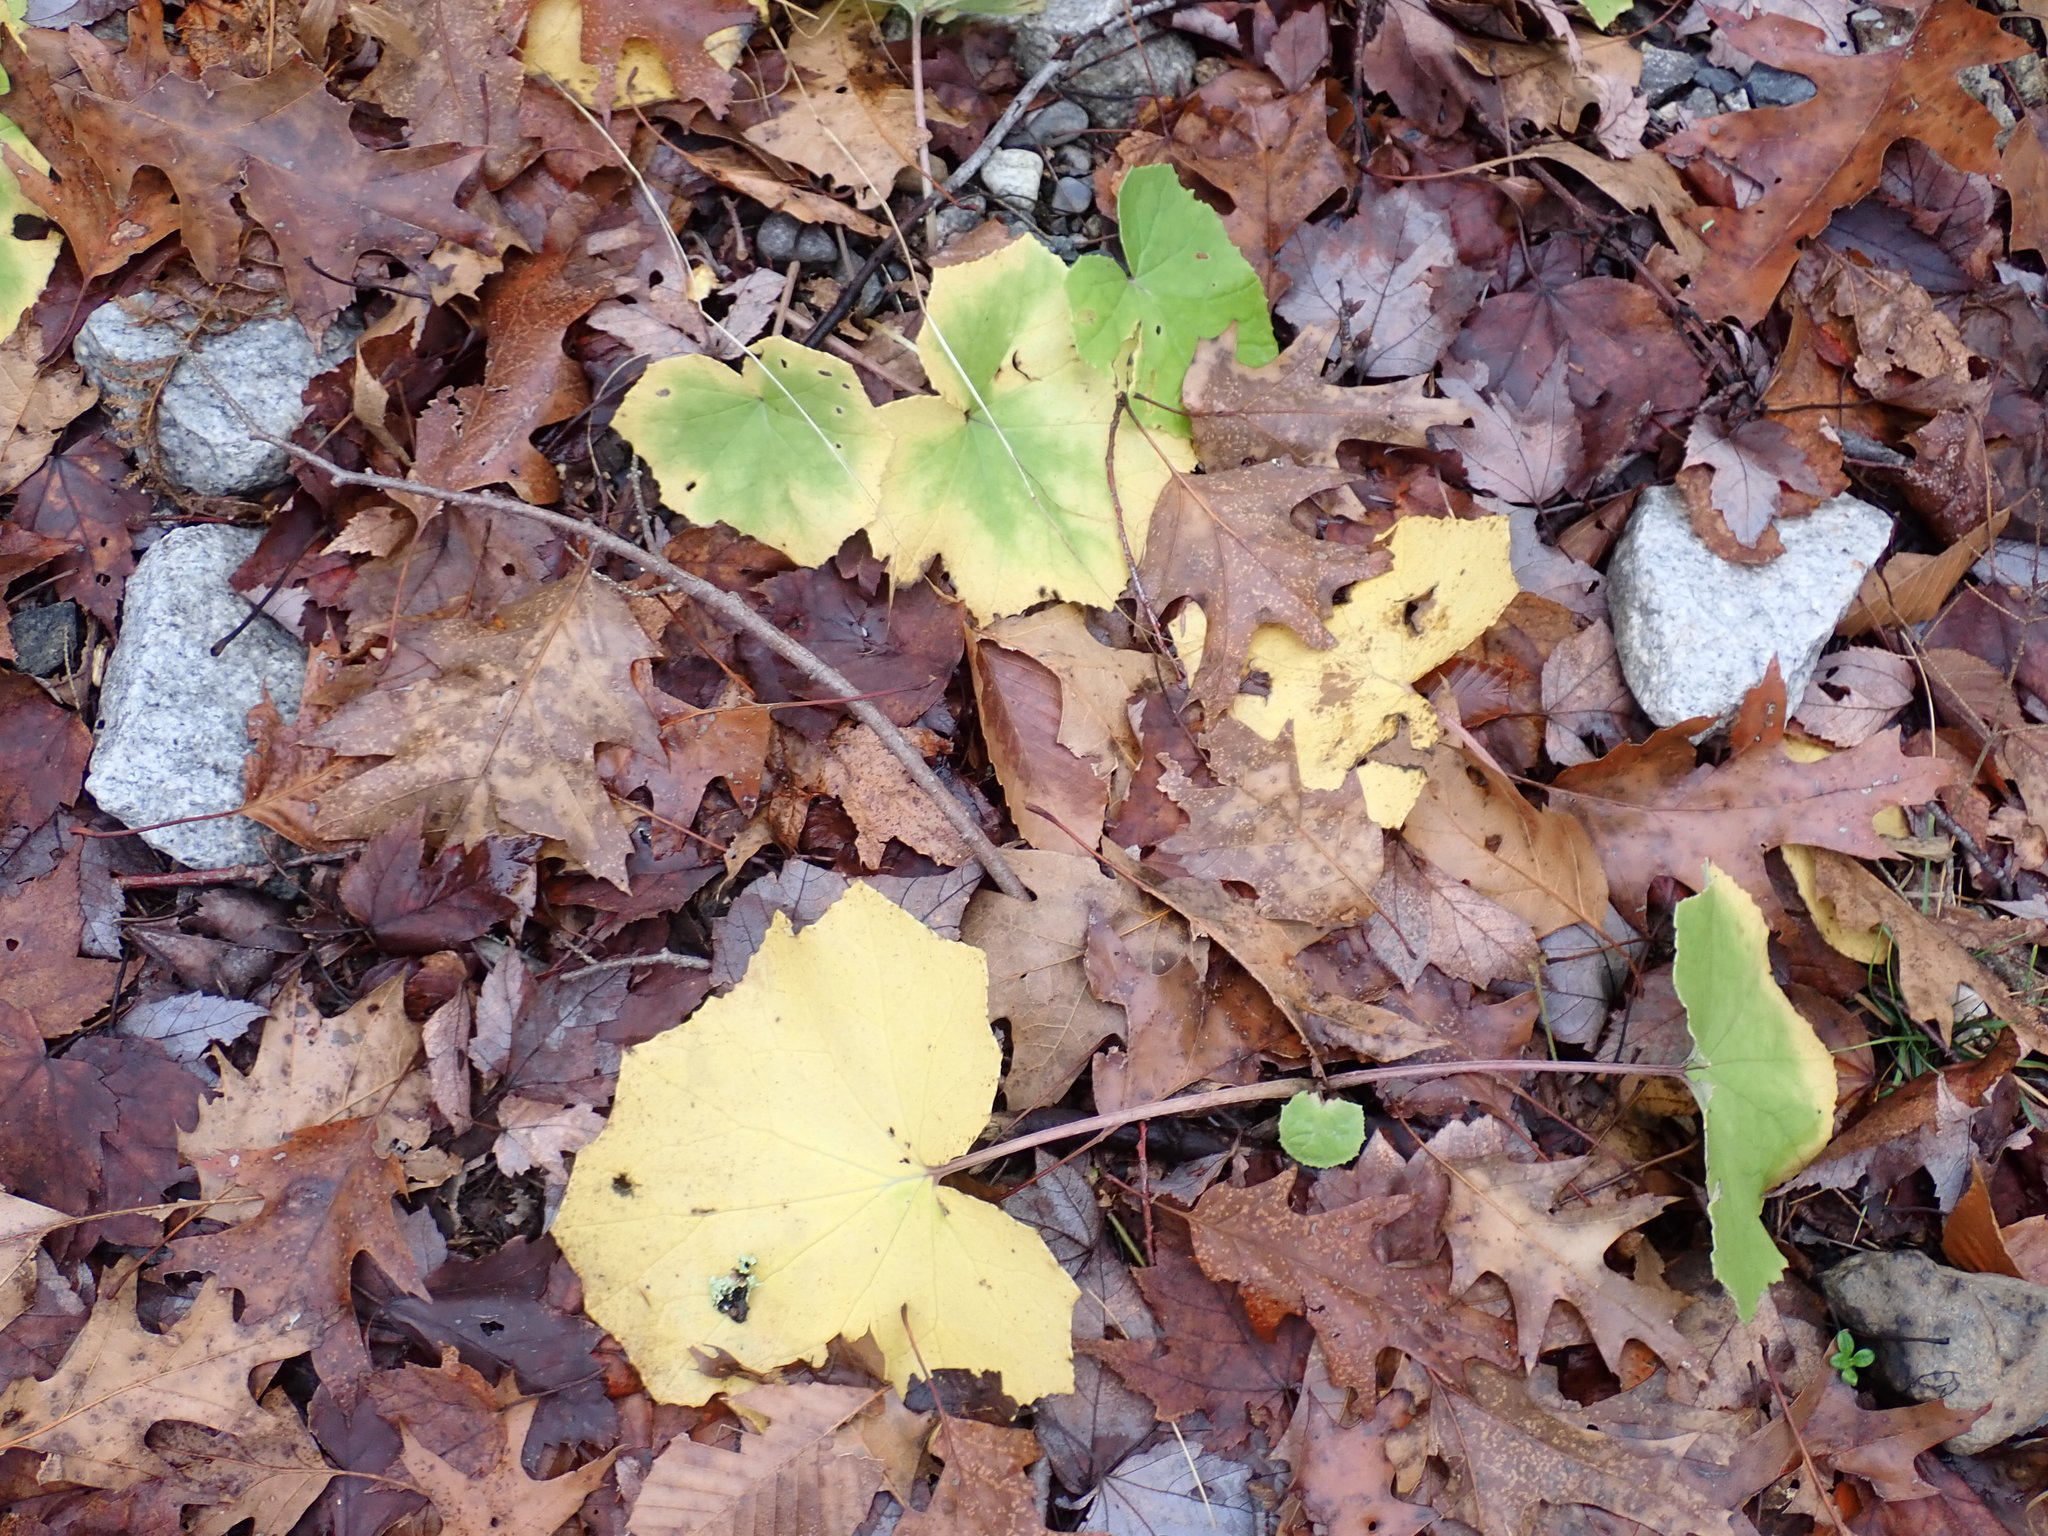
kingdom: Plantae
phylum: Tracheophyta
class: Magnoliopsida
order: Asterales
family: Asteraceae
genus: Tussilago
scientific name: Tussilago farfara
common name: Coltsfoot
